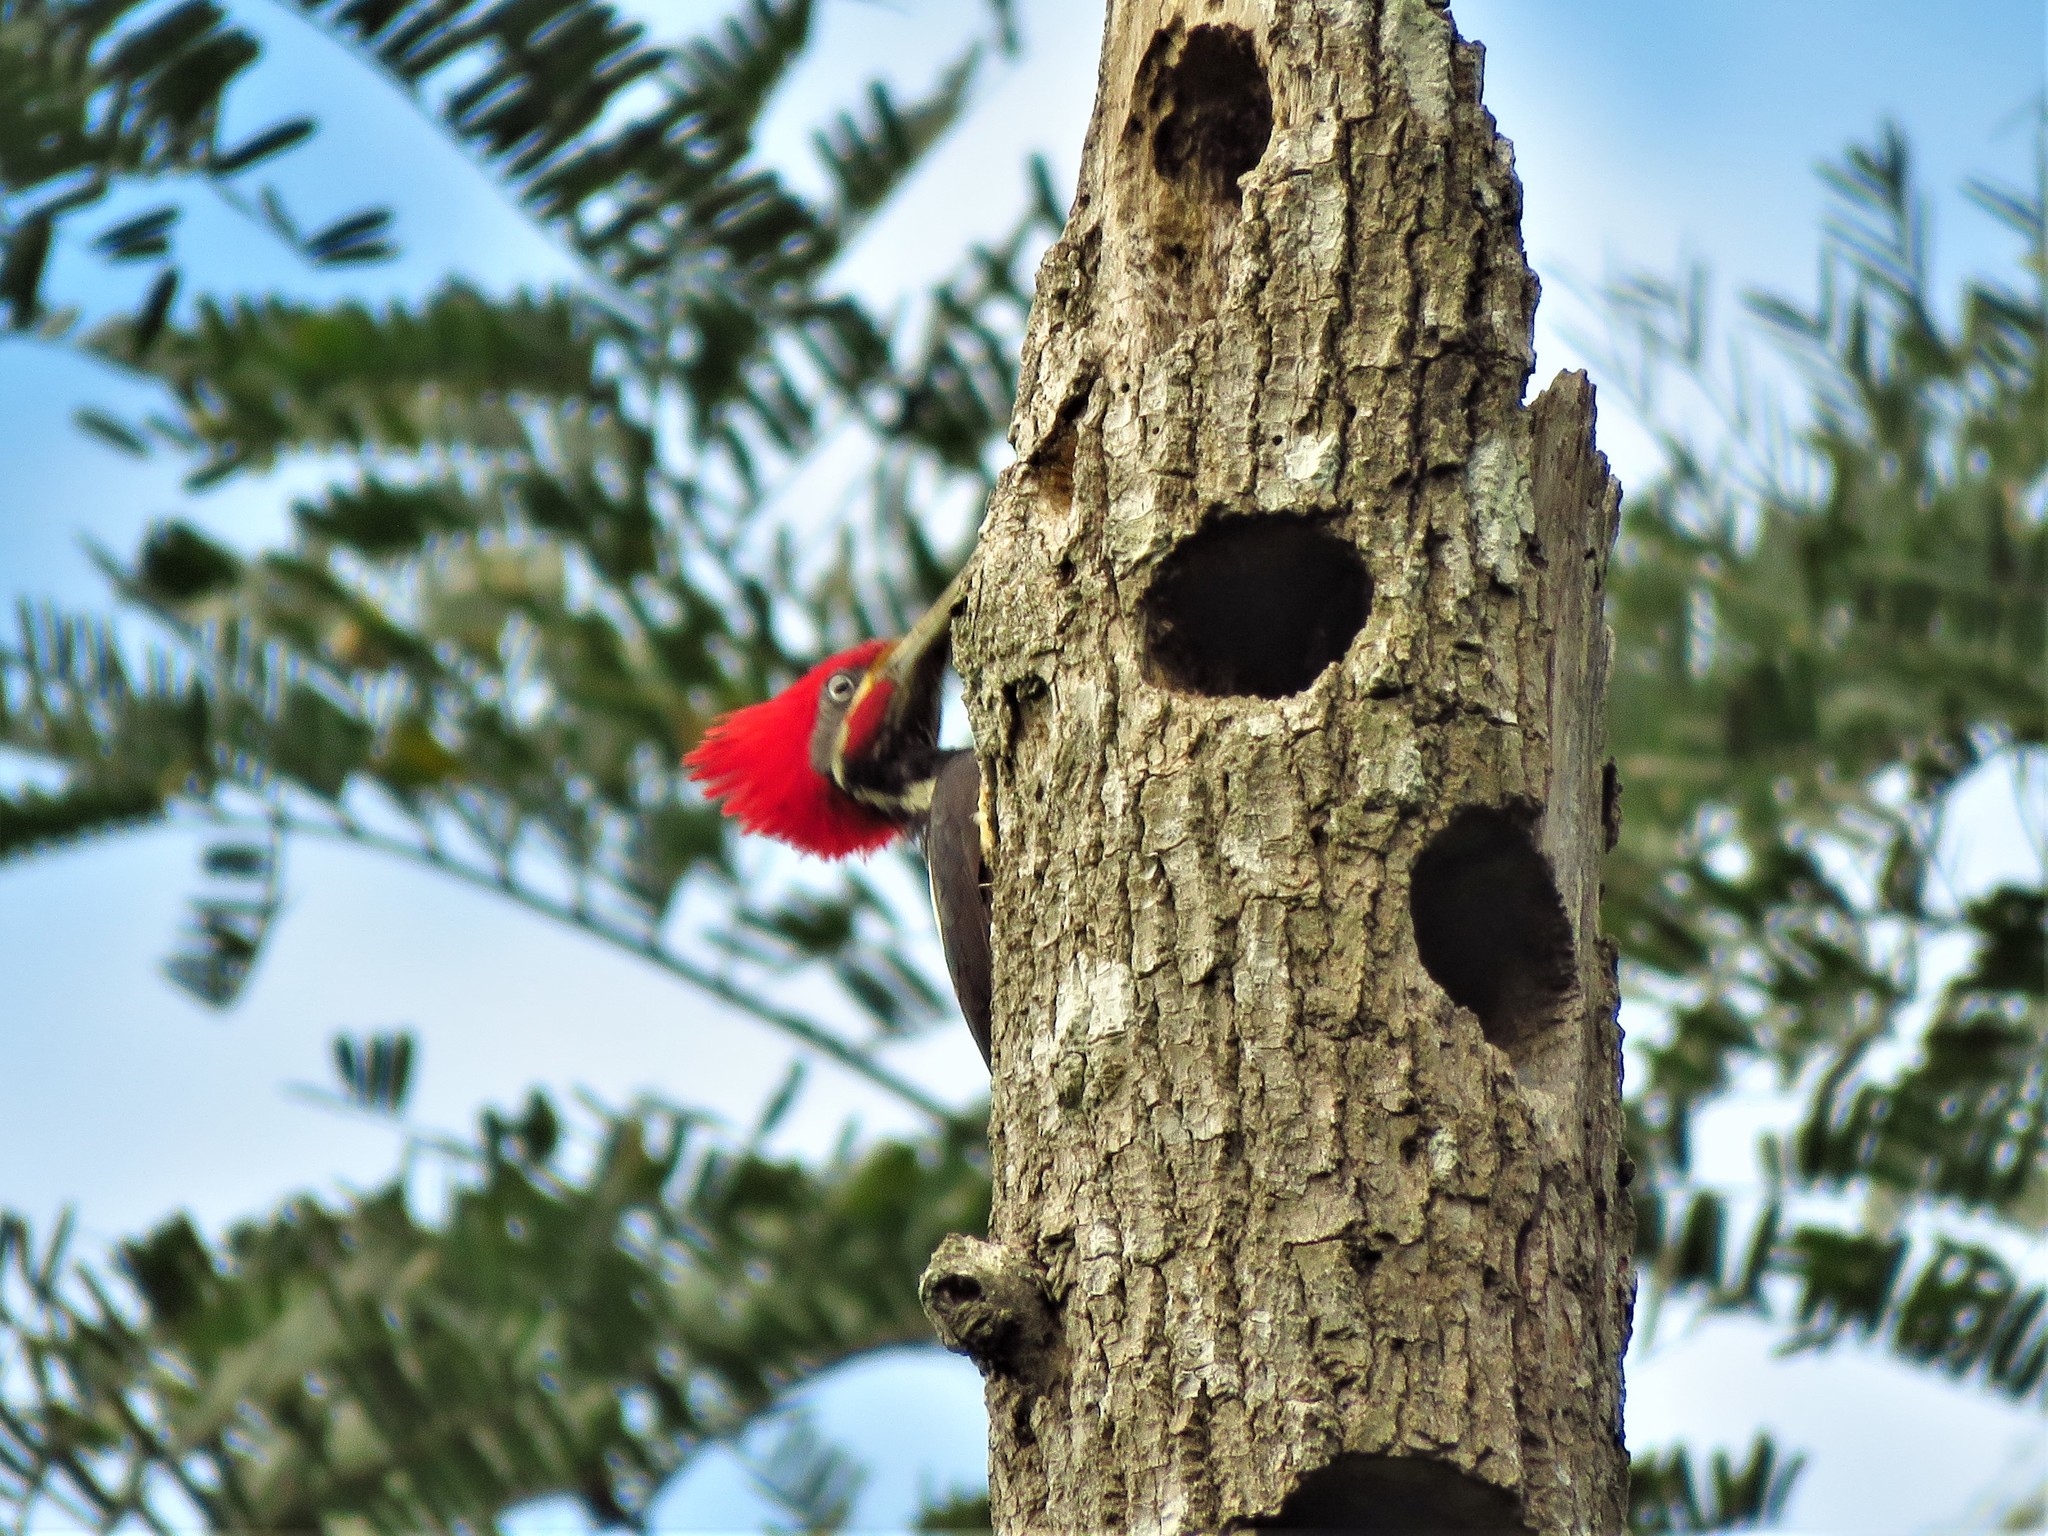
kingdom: Animalia
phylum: Chordata
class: Aves
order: Piciformes
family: Picidae
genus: Dryocopus
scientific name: Dryocopus lineatus
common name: Lineated woodpecker
